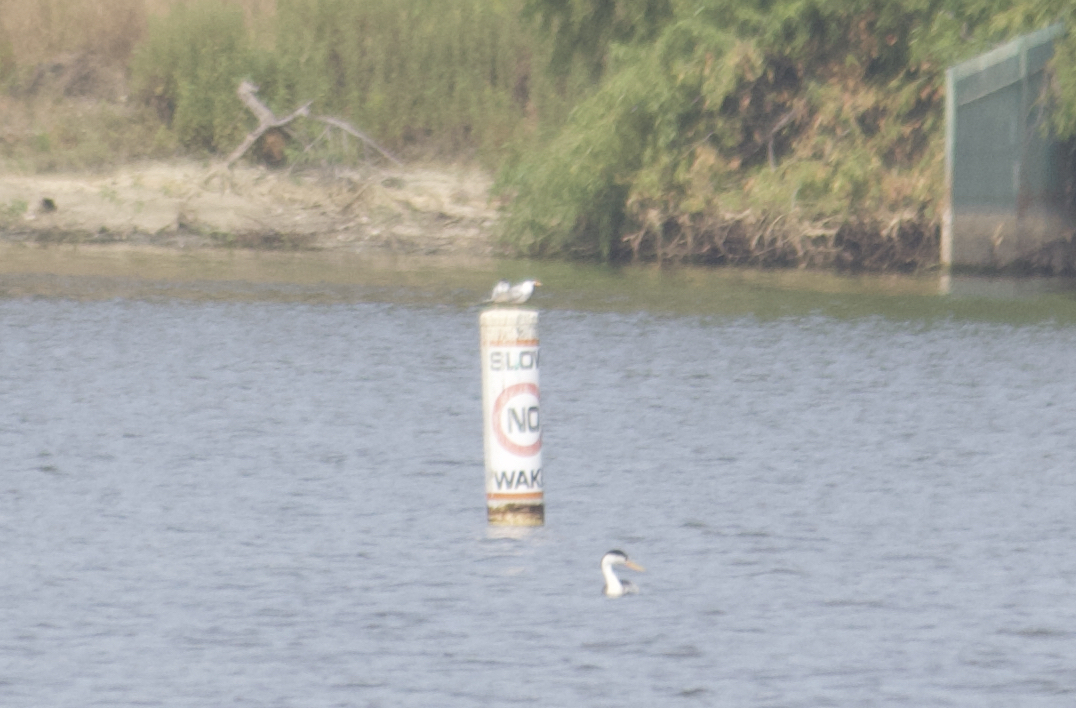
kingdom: Animalia
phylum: Chordata
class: Aves
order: Charadriiformes
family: Laridae
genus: Sterna
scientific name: Sterna forsteri
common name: Forster's tern
